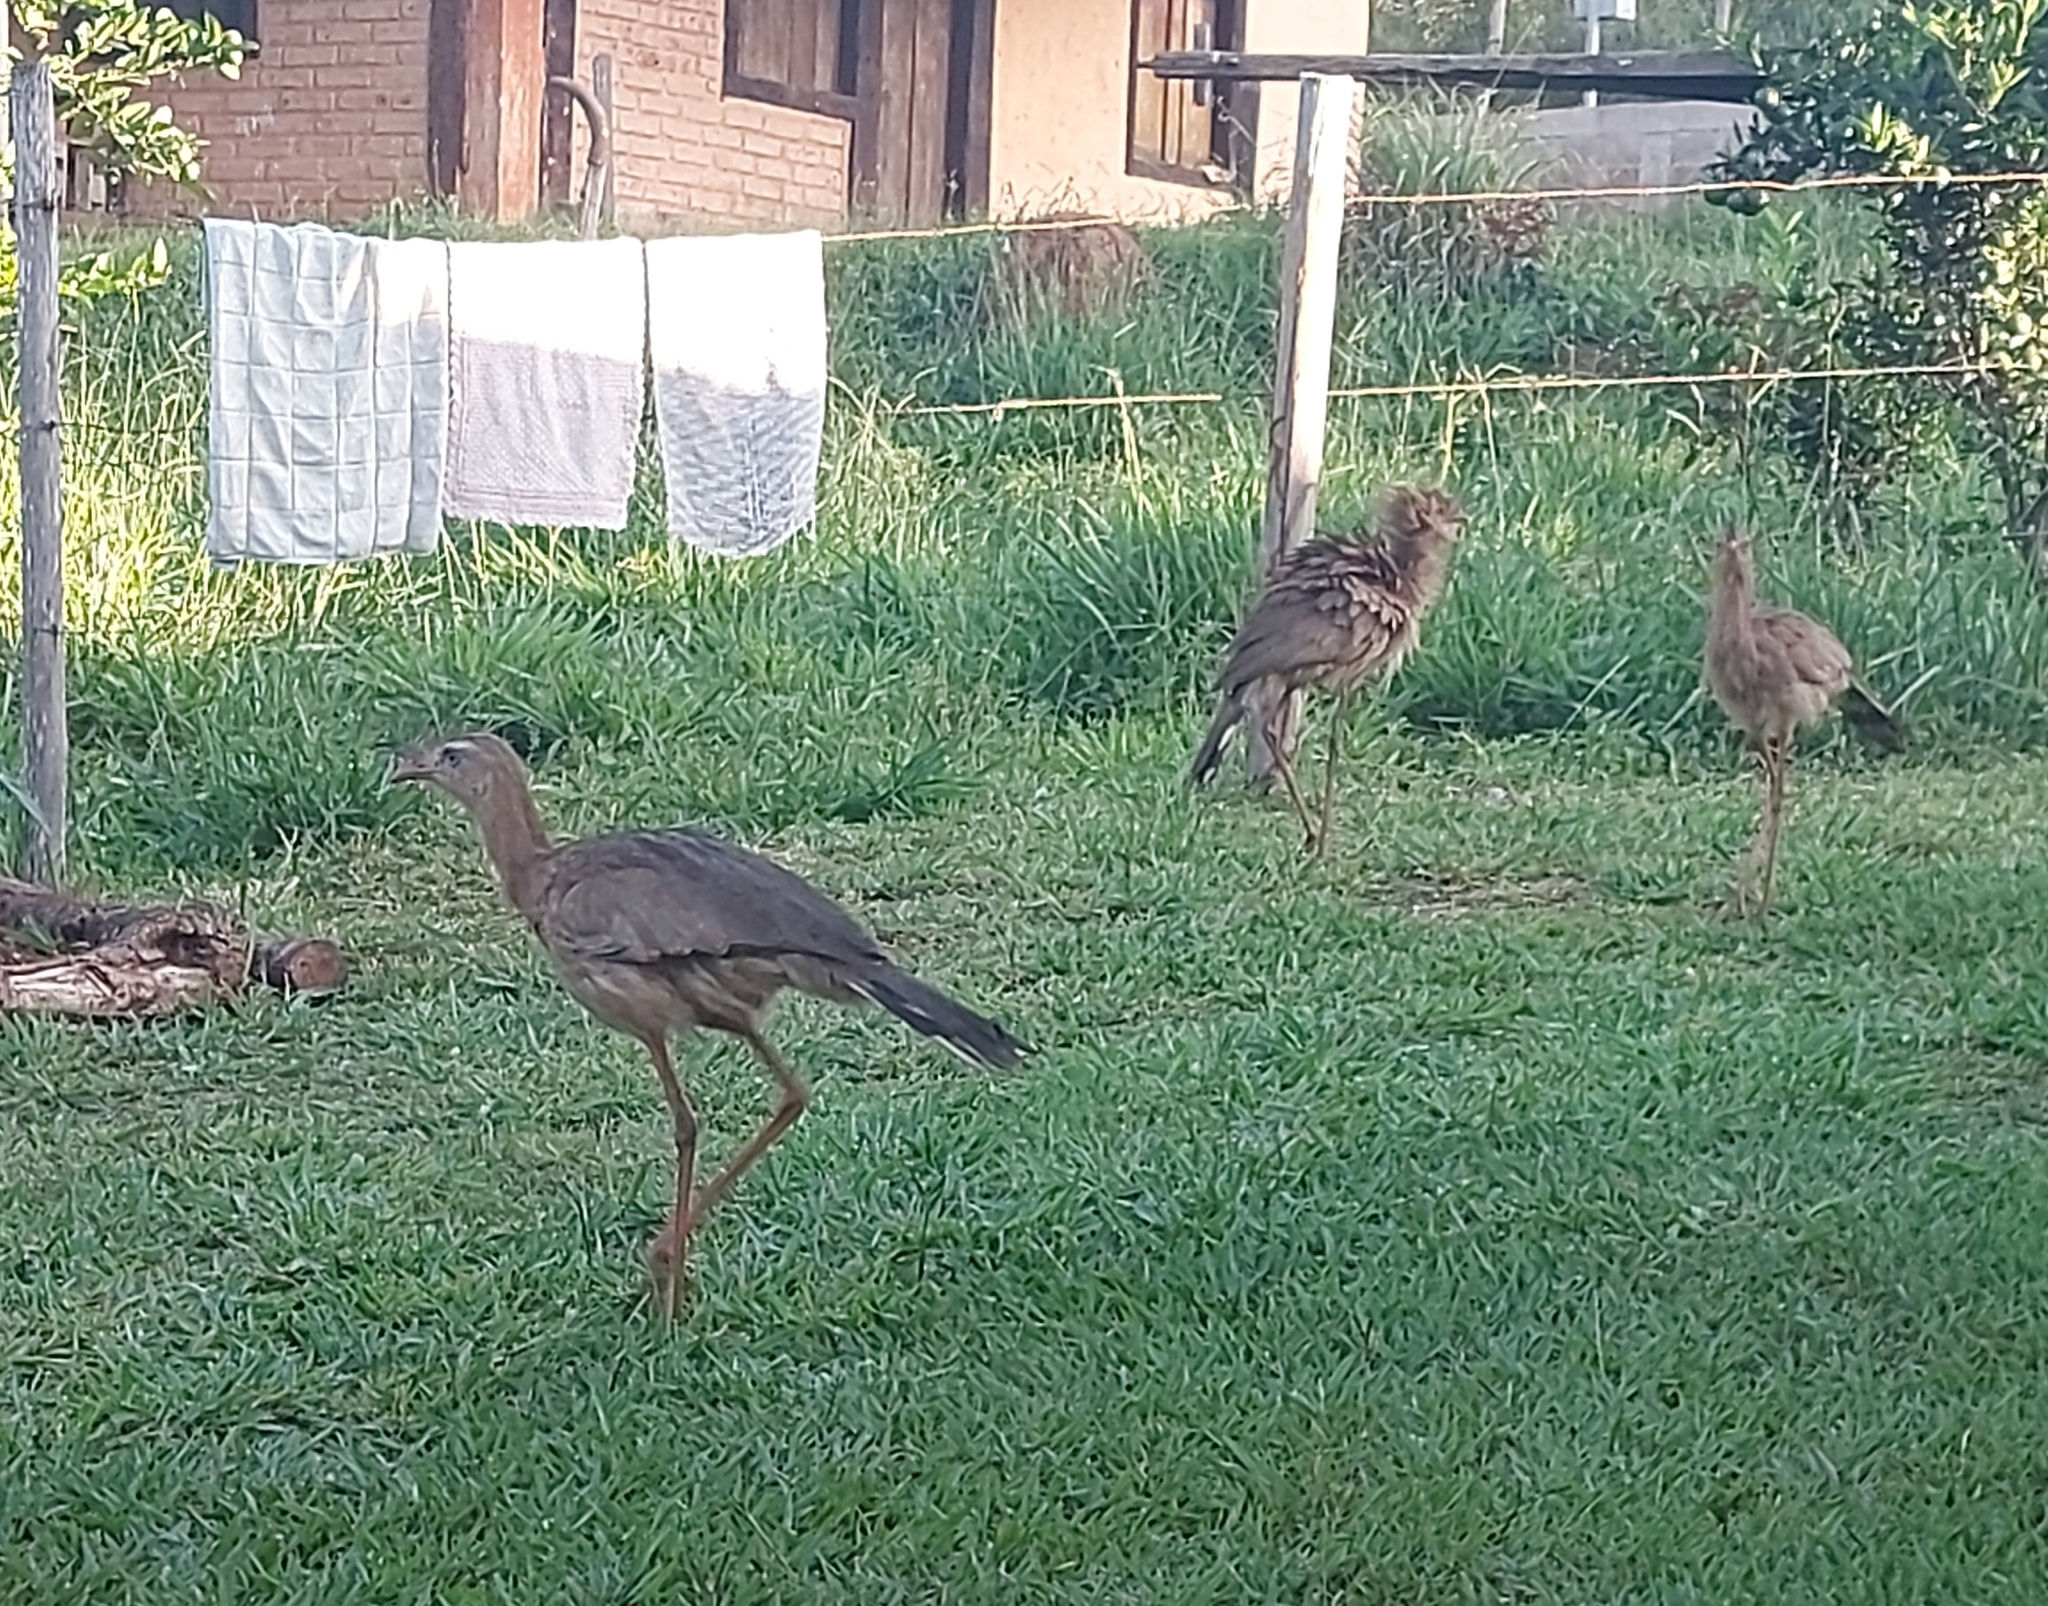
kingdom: Animalia
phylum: Chordata
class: Aves
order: Cariamiformes
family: Cariamidae
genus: Cariama
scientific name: Cariama cristata
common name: Red-legged seriema
